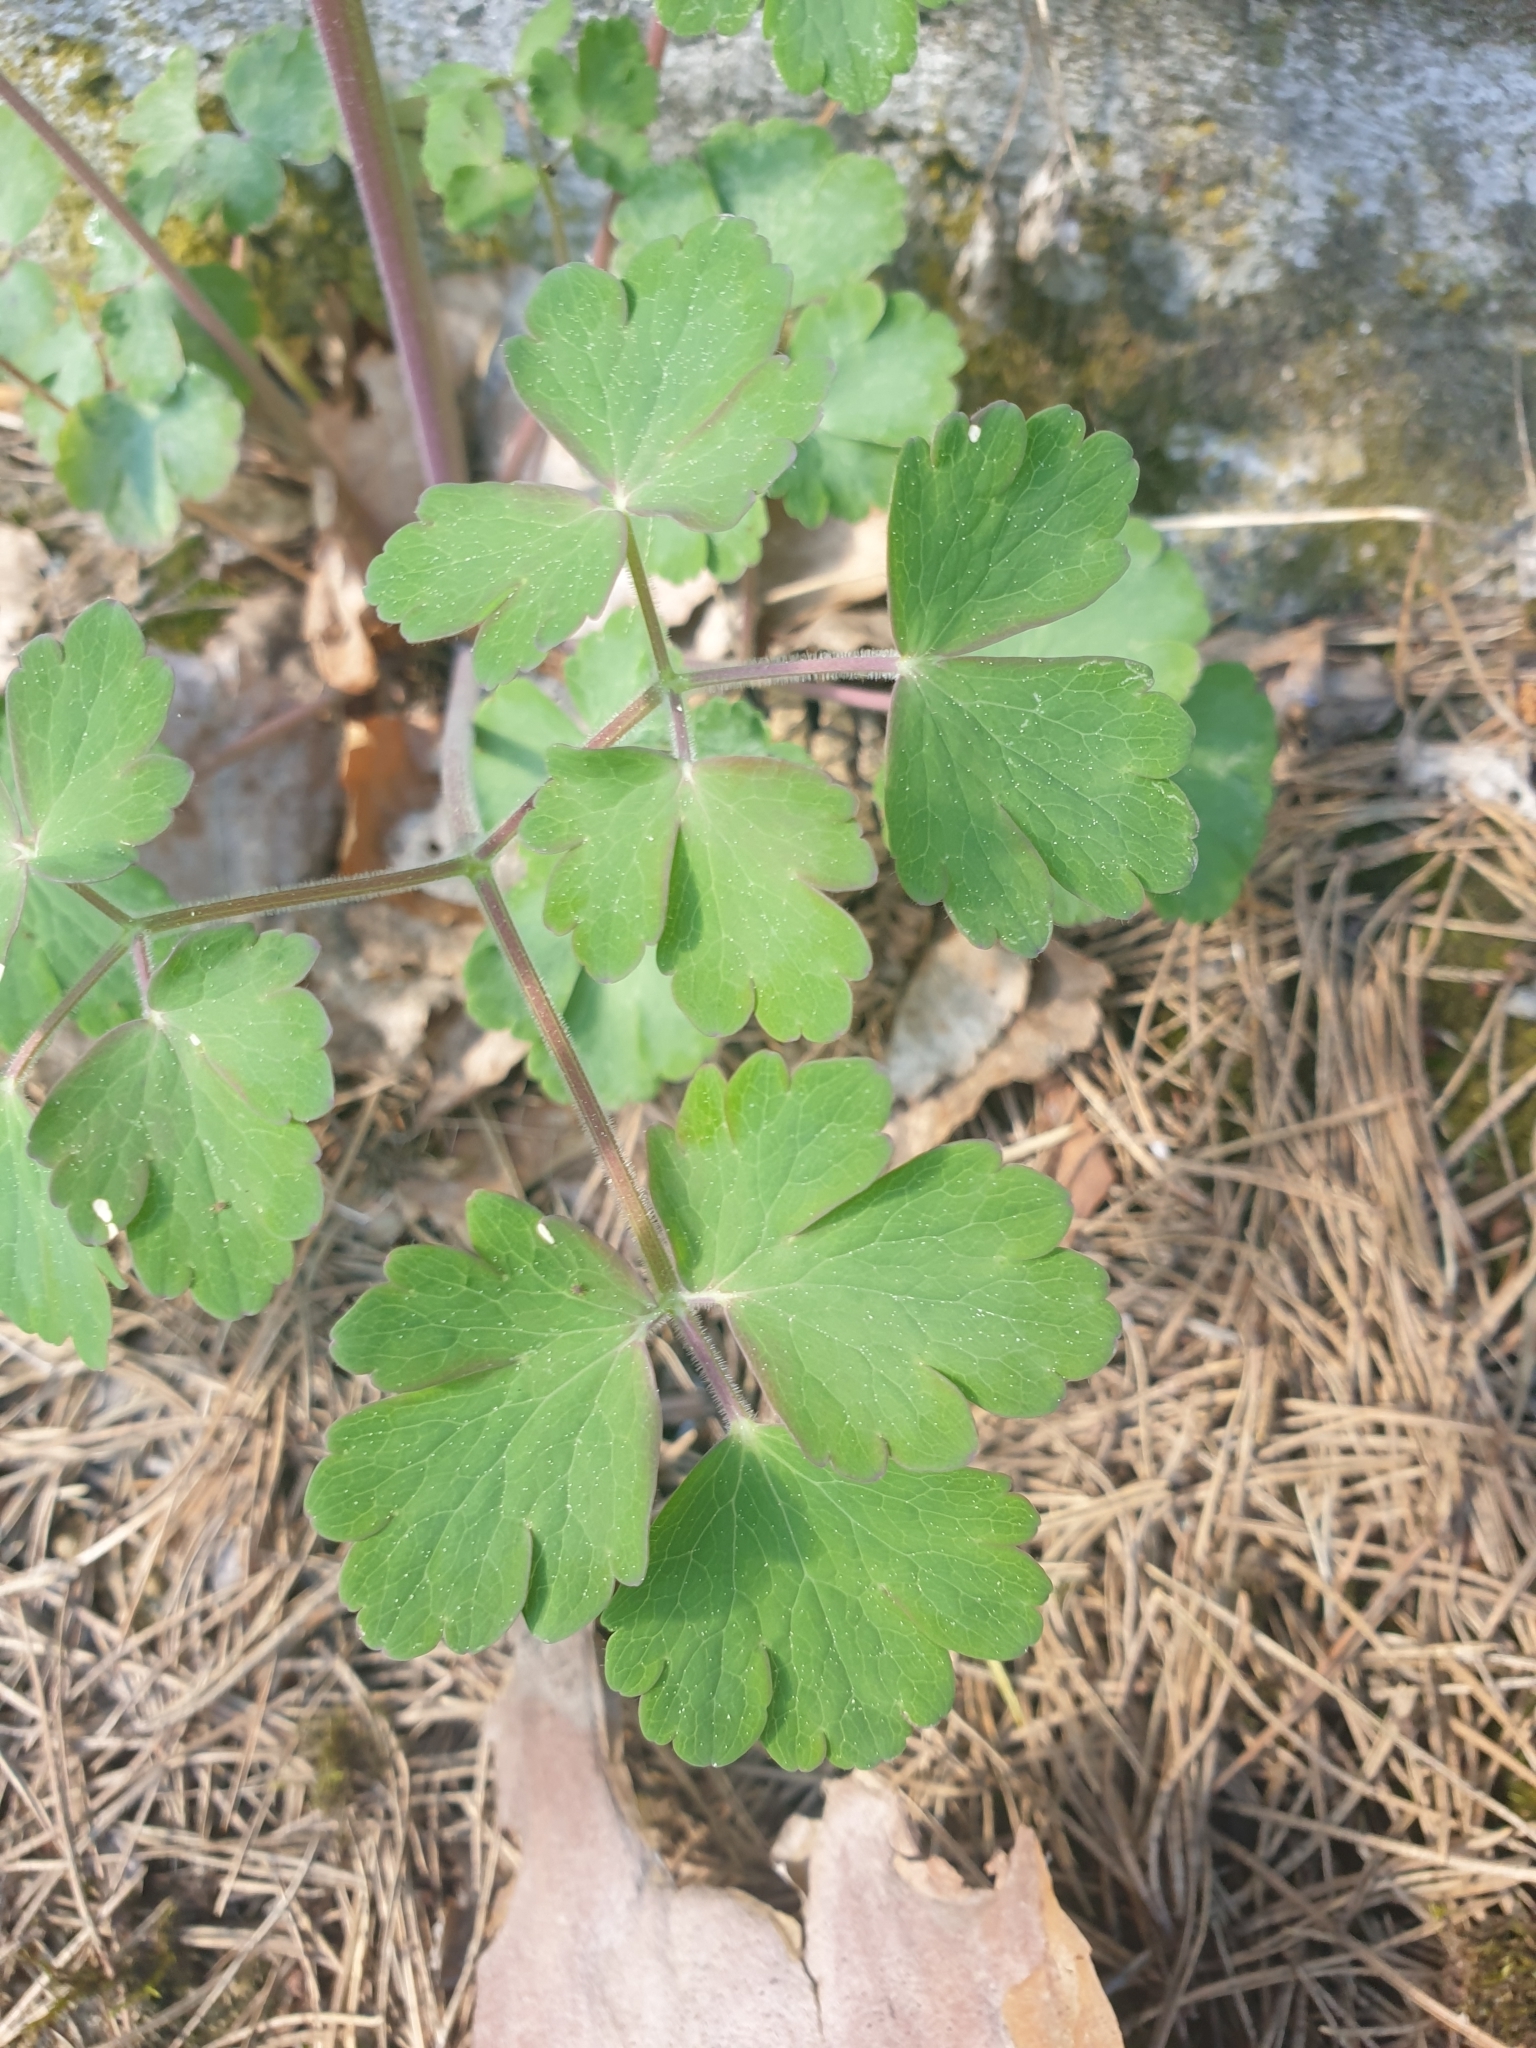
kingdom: Plantae
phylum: Tracheophyta
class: Magnoliopsida
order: Ranunculales
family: Ranunculaceae
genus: Aquilegia
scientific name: Aquilegia vulgaris
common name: Columbine
